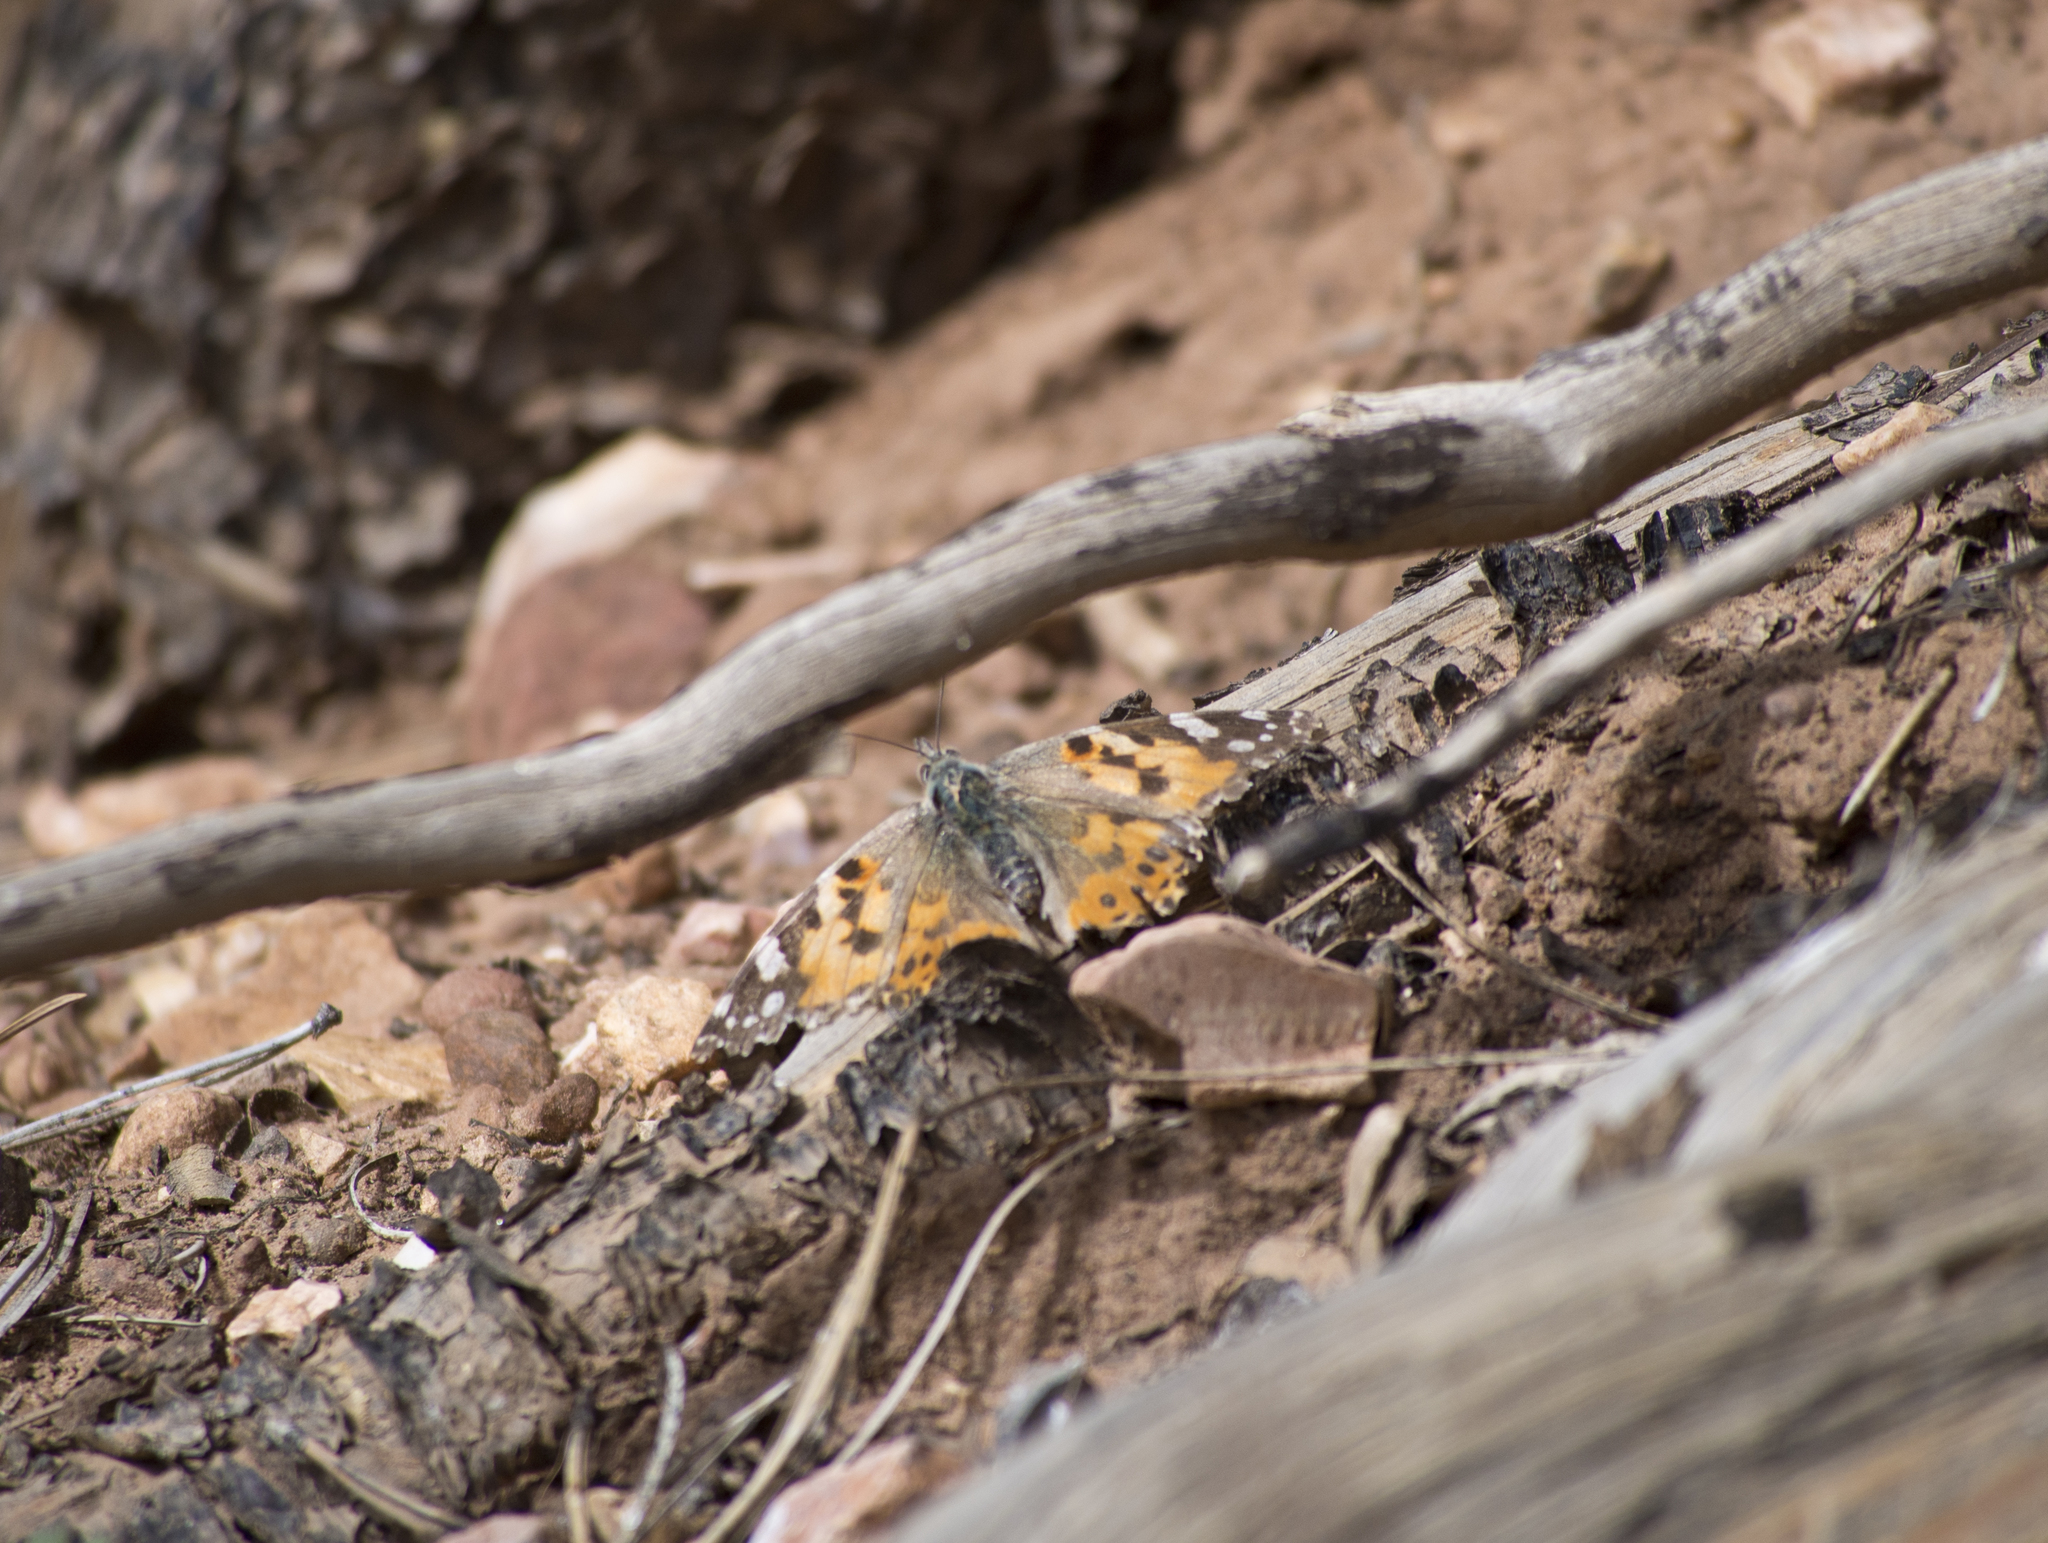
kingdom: Animalia
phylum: Arthropoda
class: Insecta
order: Lepidoptera
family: Nymphalidae
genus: Vanessa
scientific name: Vanessa cardui
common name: Painted lady
